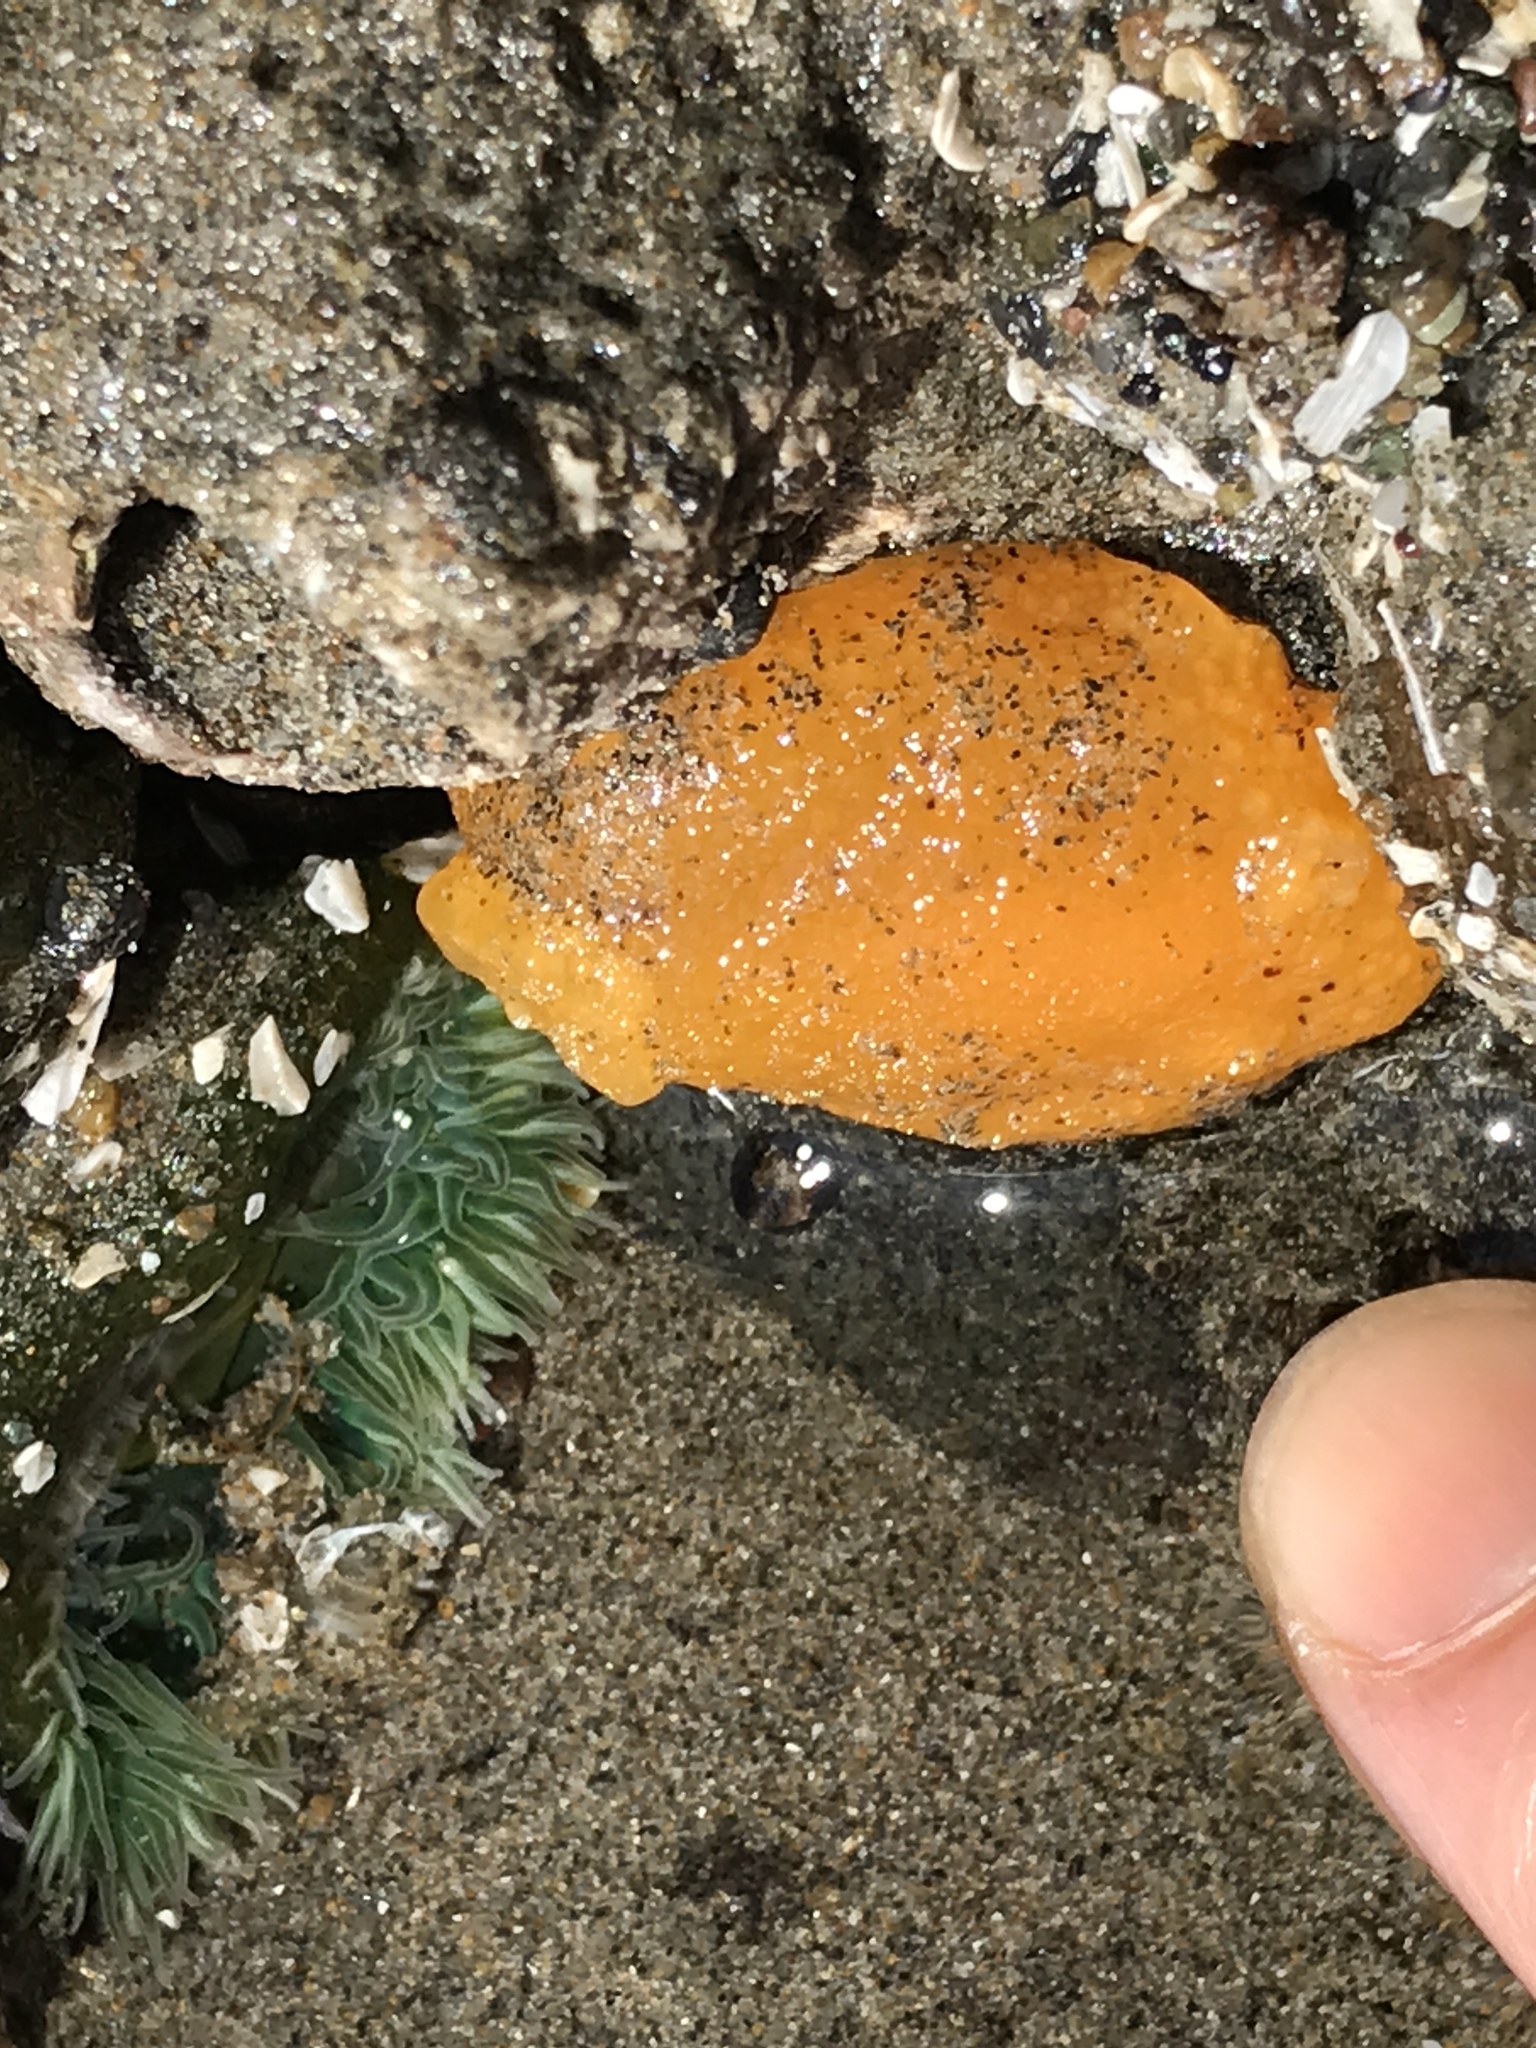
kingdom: Animalia
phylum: Mollusca
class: Gastropoda
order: Nudibranchia
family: Discodorididae
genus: Peltodoris
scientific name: Peltodoris nobilis
